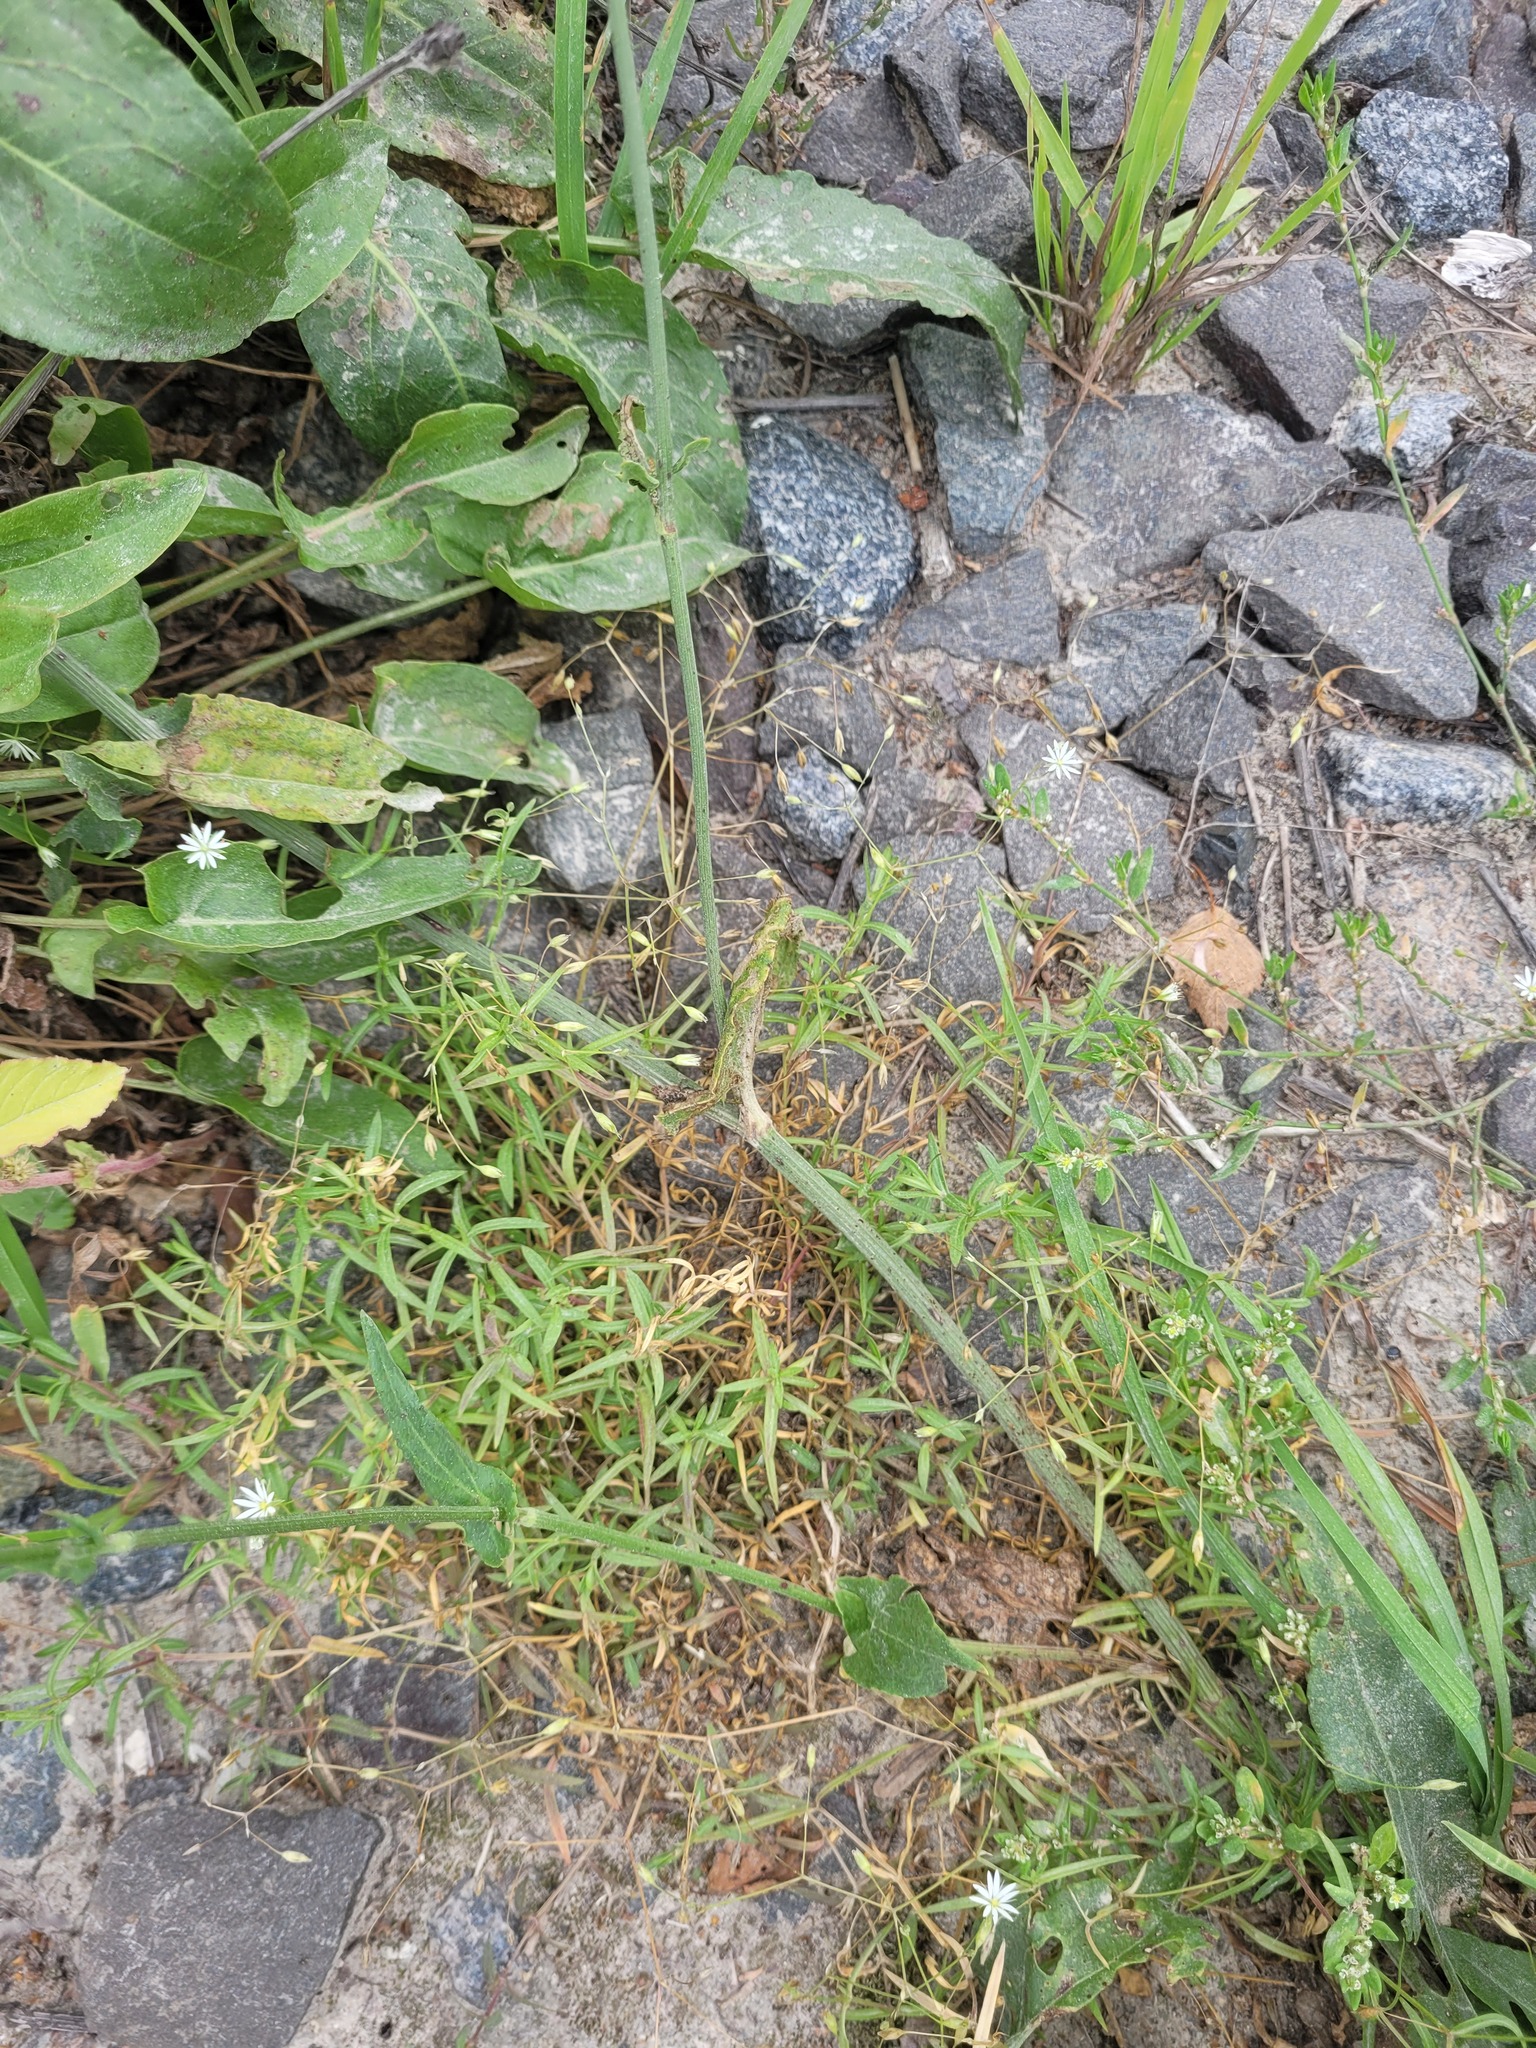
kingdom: Plantae
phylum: Tracheophyta
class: Magnoliopsida
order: Caryophyllales
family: Caryophyllaceae
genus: Stellaria
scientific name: Stellaria graminea
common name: Grass-like starwort
